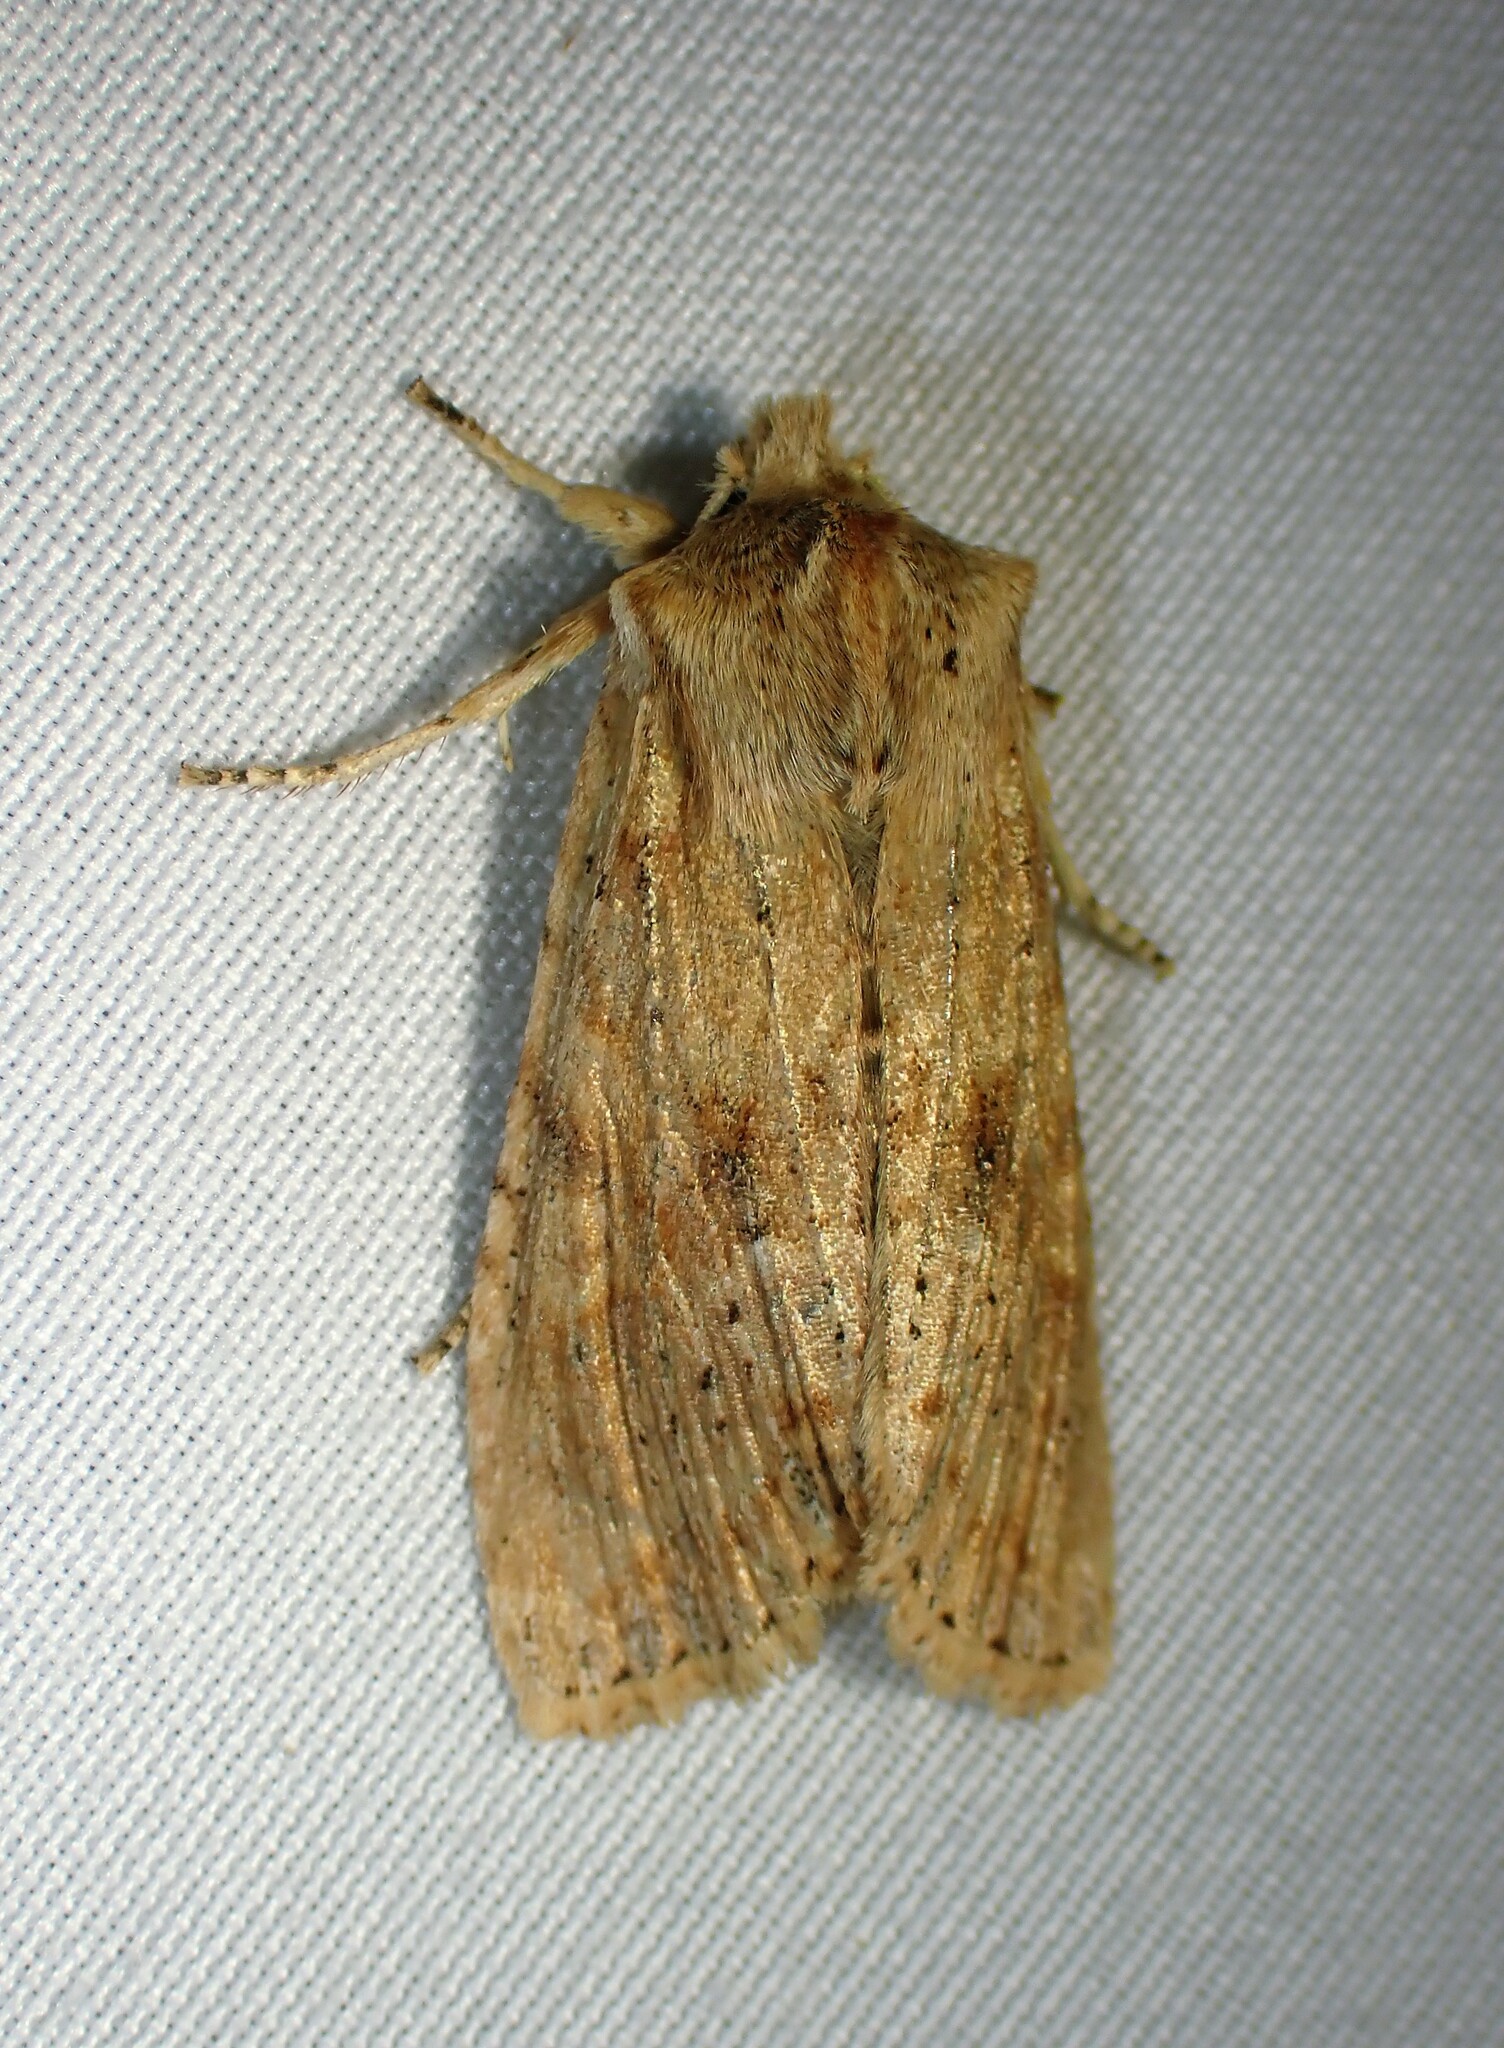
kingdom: Animalia
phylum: Arthropoda
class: Insecta
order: Lepidoptera
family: Noctuidae
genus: Lithophane
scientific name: Lithophane innominata
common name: Nameless pinion moth
